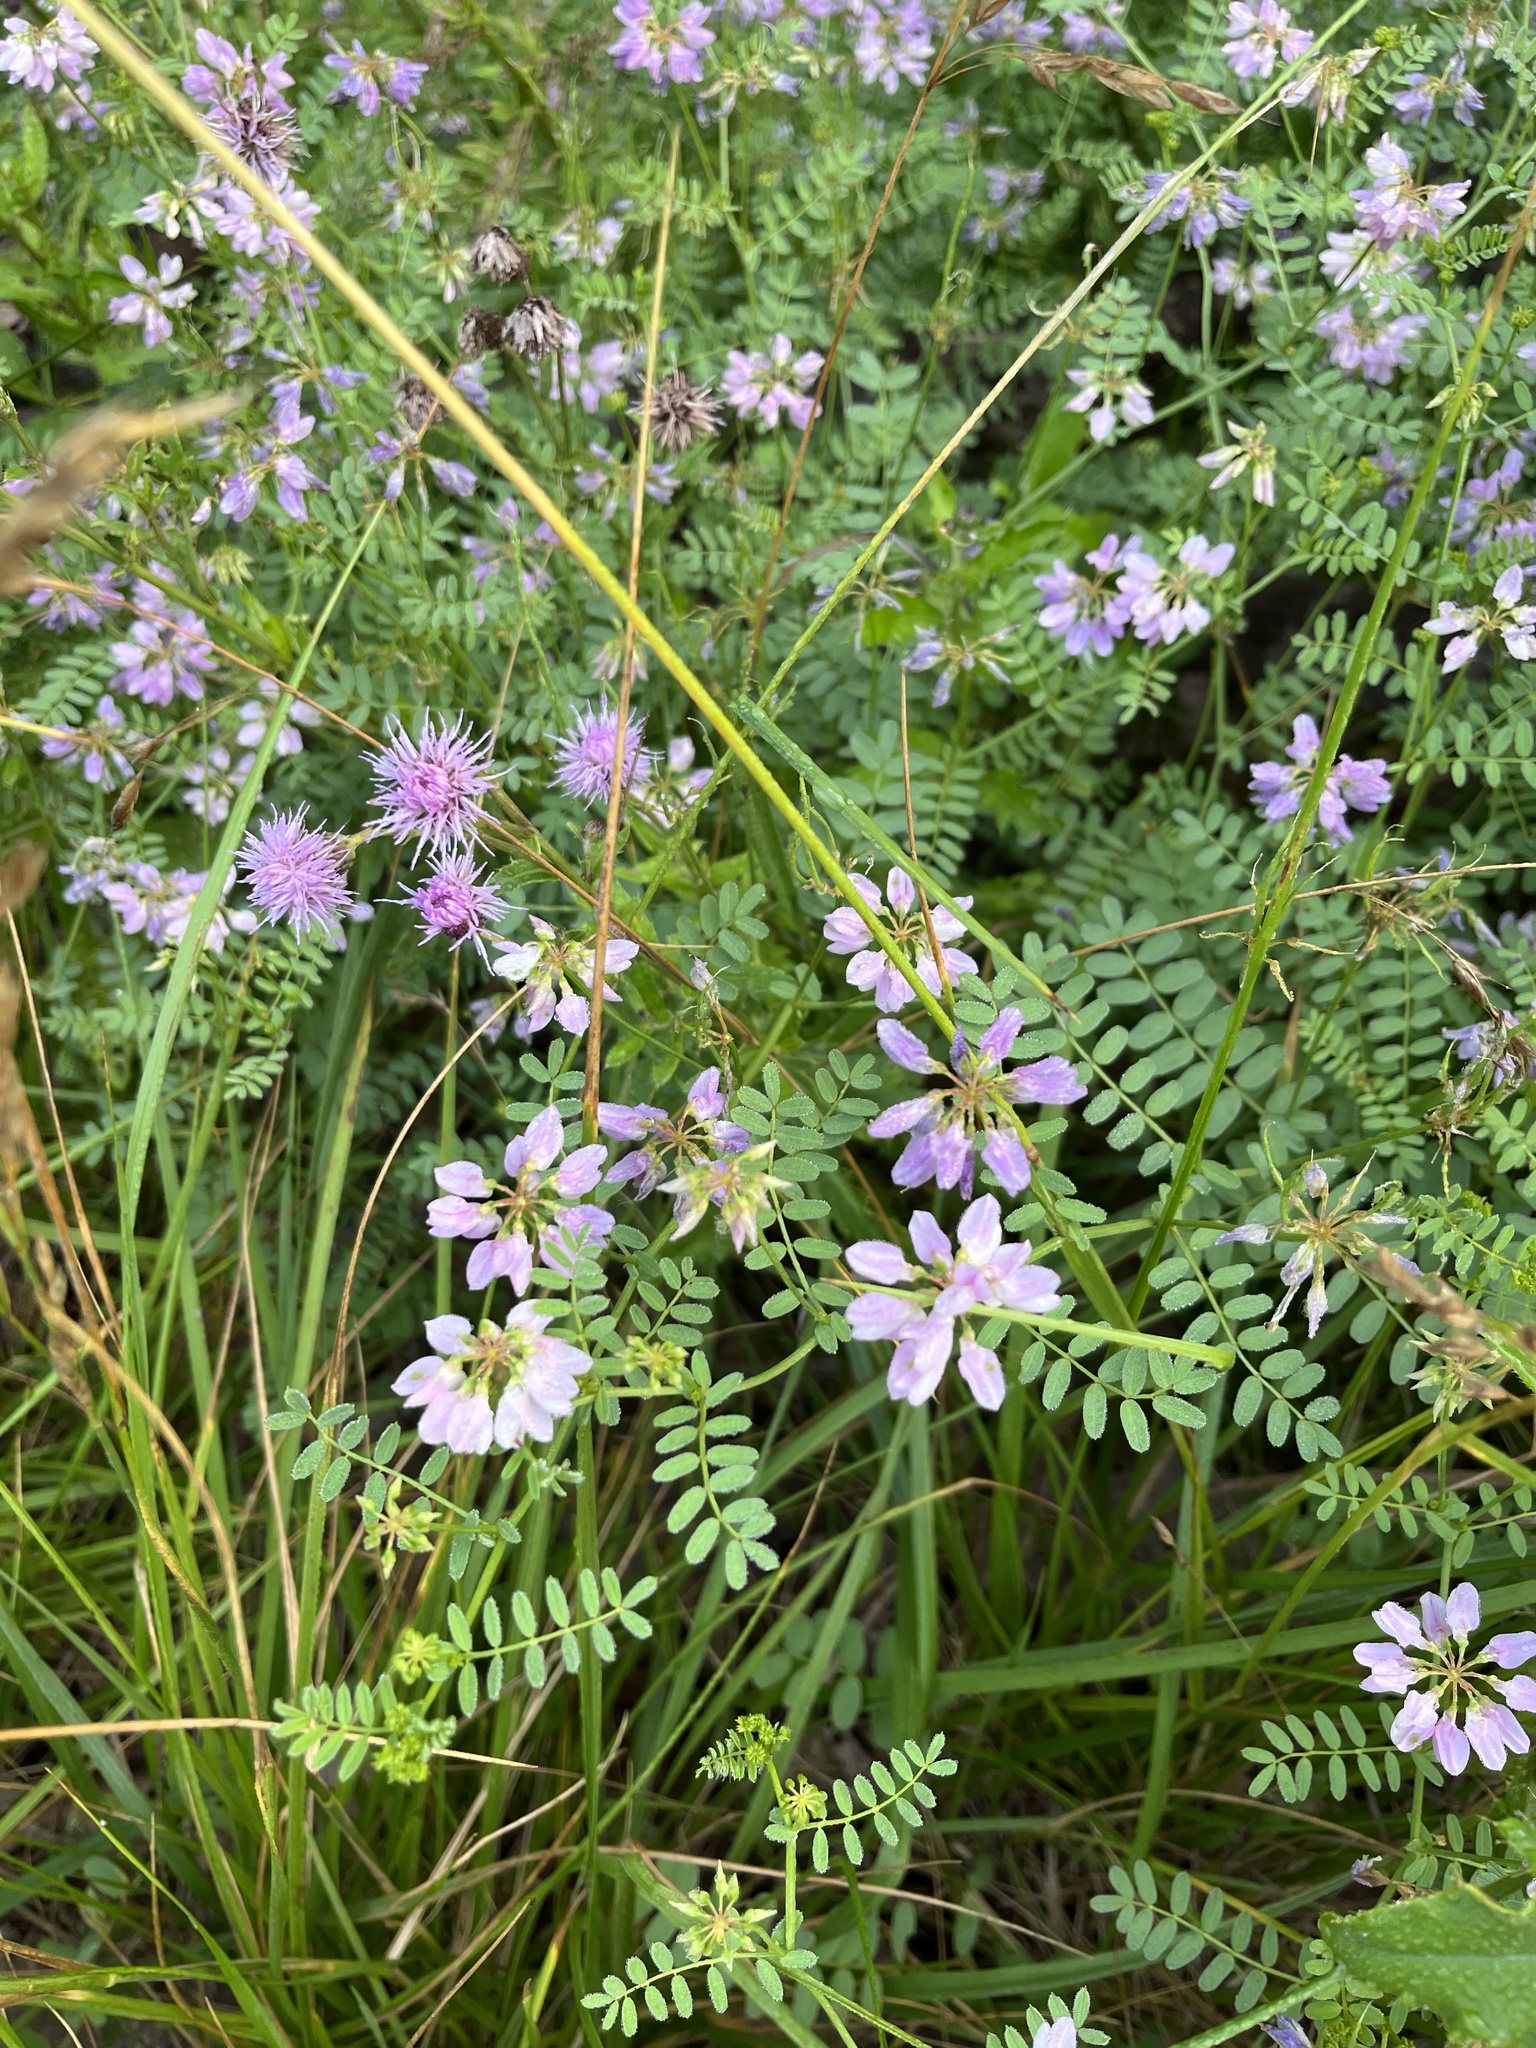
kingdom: Plantae
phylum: Tracheophyta
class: Magnoliopsida
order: Fabales
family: Fabaceae
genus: Coronilla
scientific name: Coronilla varia
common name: Crownvetch
